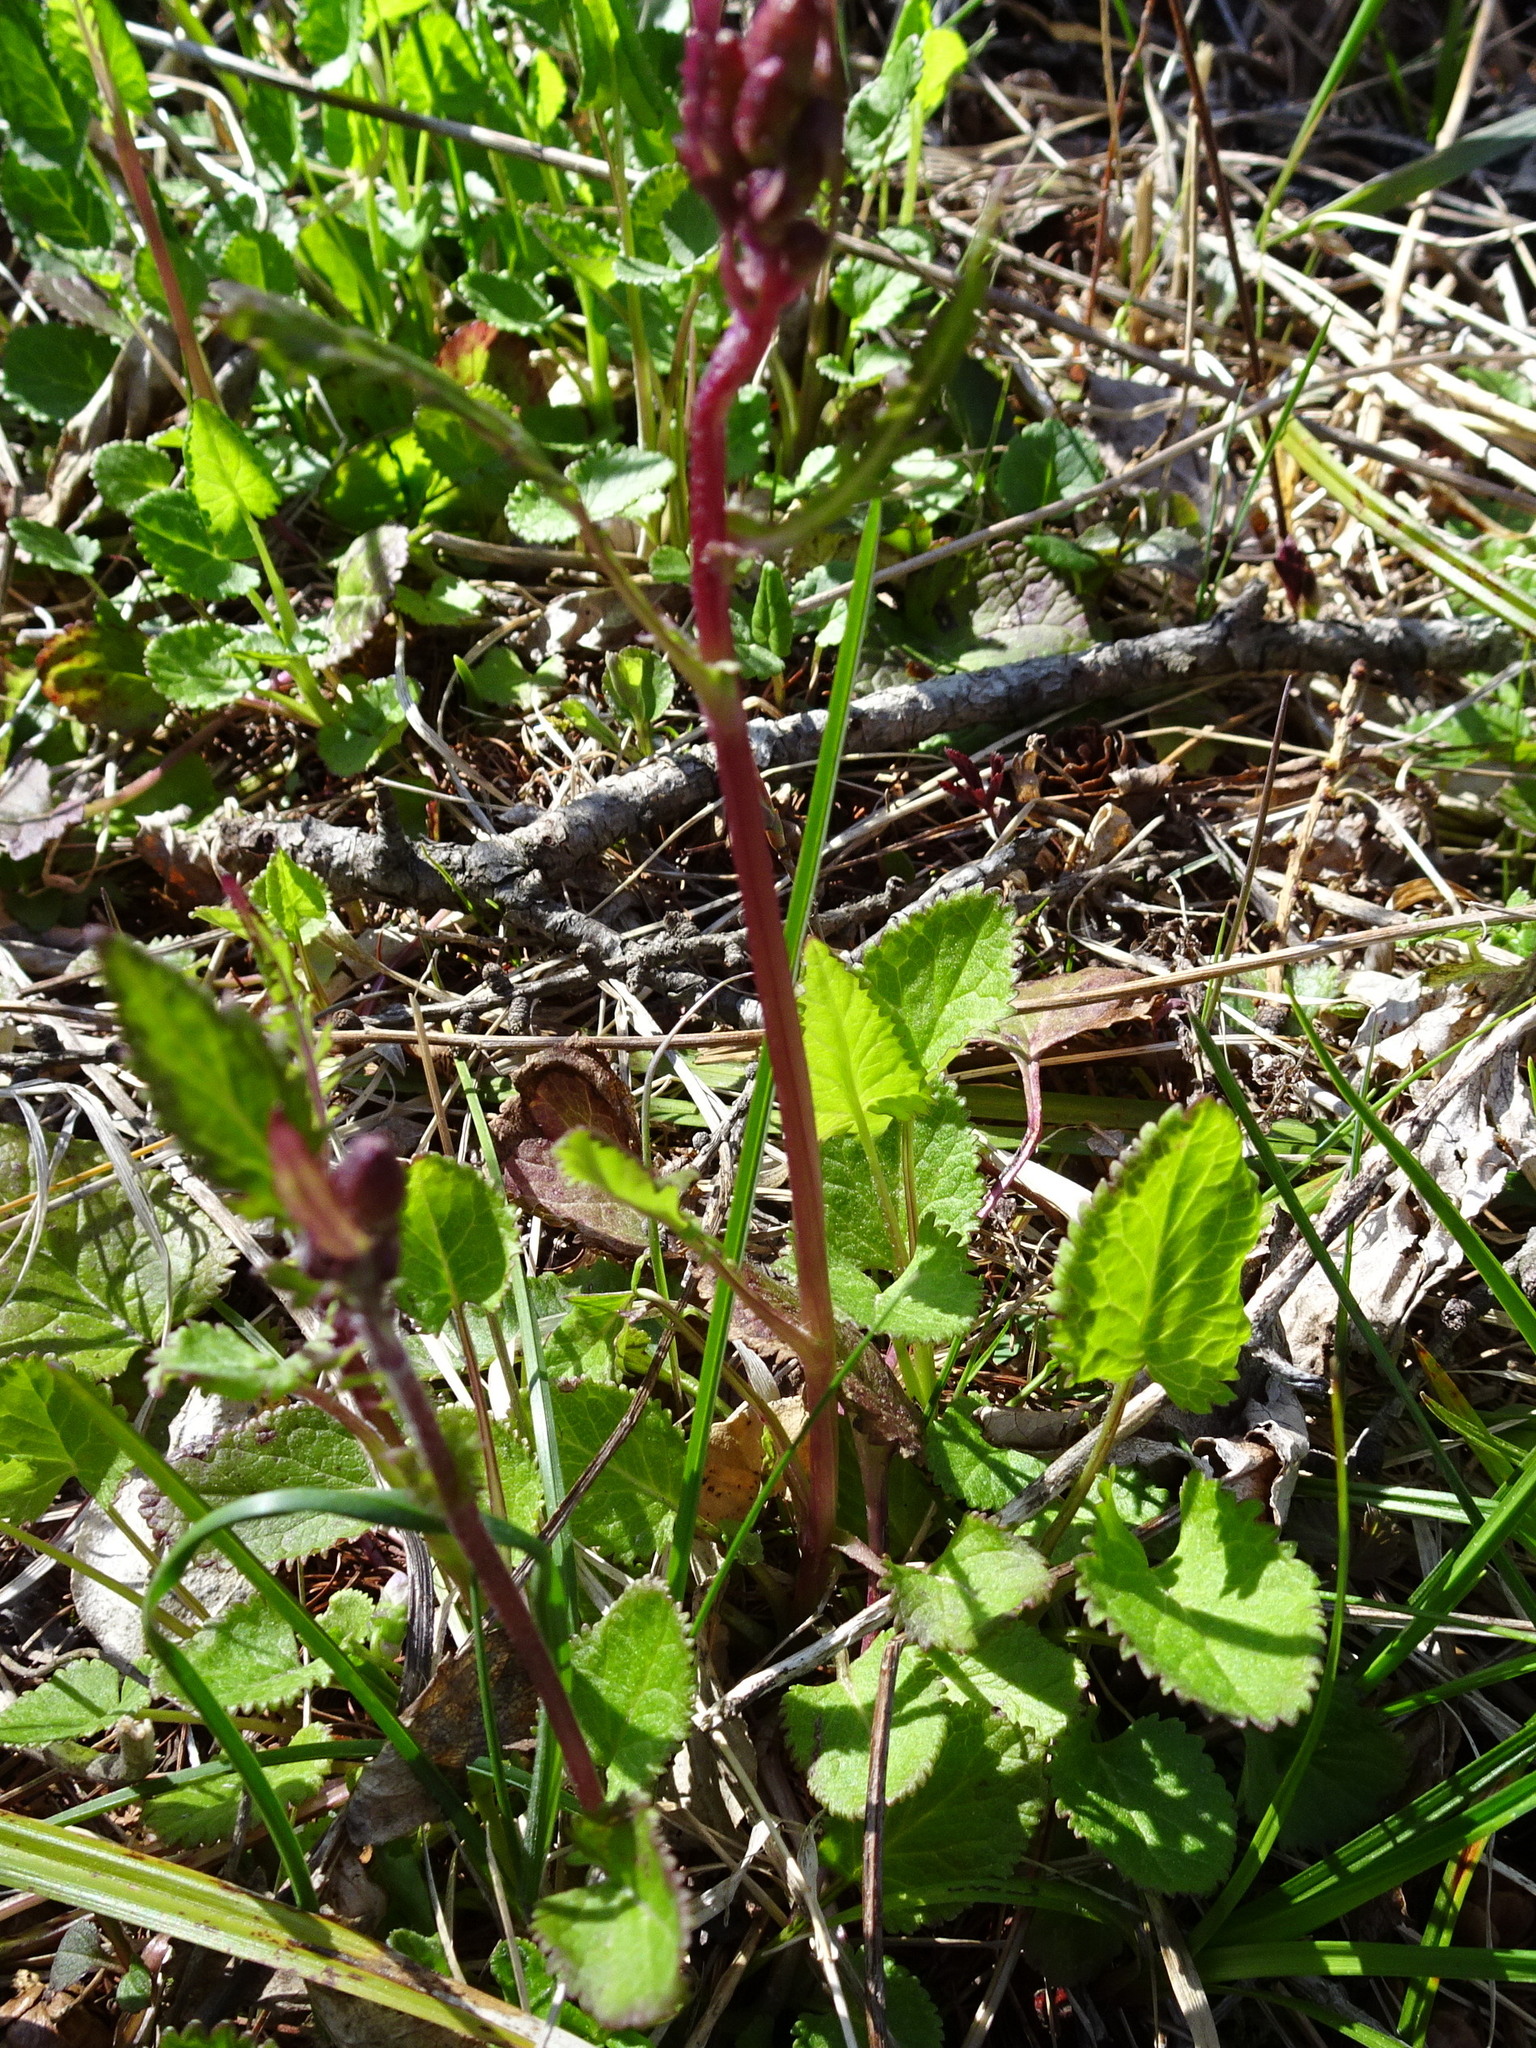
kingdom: Plantae
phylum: Tracheophyta
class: Magnoliopsida
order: Asterales
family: Asteraceae
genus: Packera
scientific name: Packera aurea
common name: Golden groundsel
